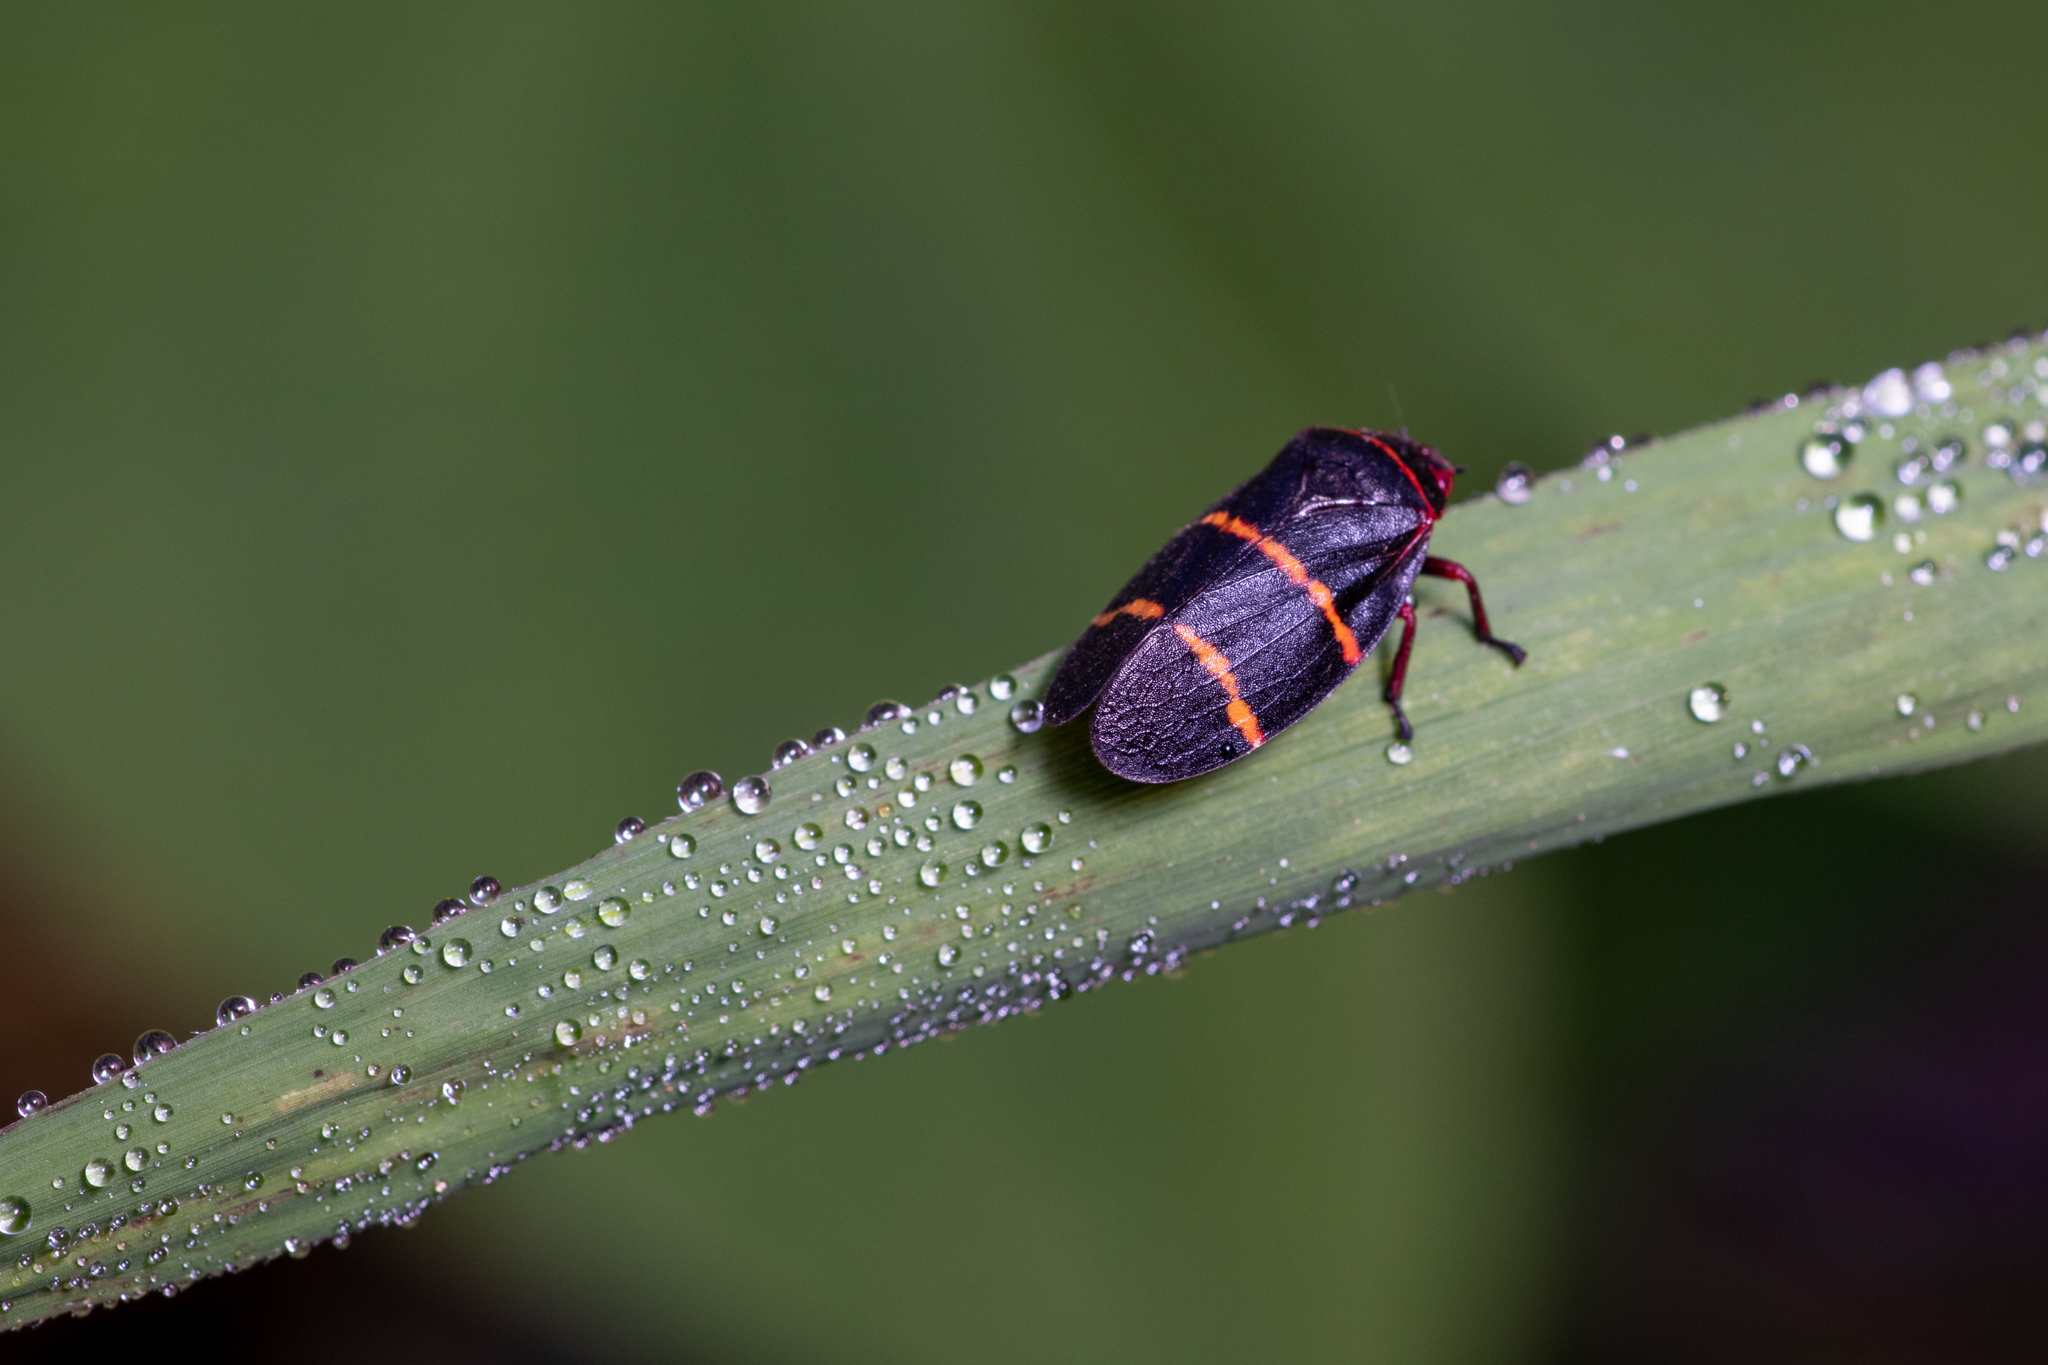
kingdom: Animalia
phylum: Arthropoda
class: Insecta
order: Hemiptera
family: Cercopidae
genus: Prosapia
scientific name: Prosapia bicincta
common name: Twolined spittlebug
